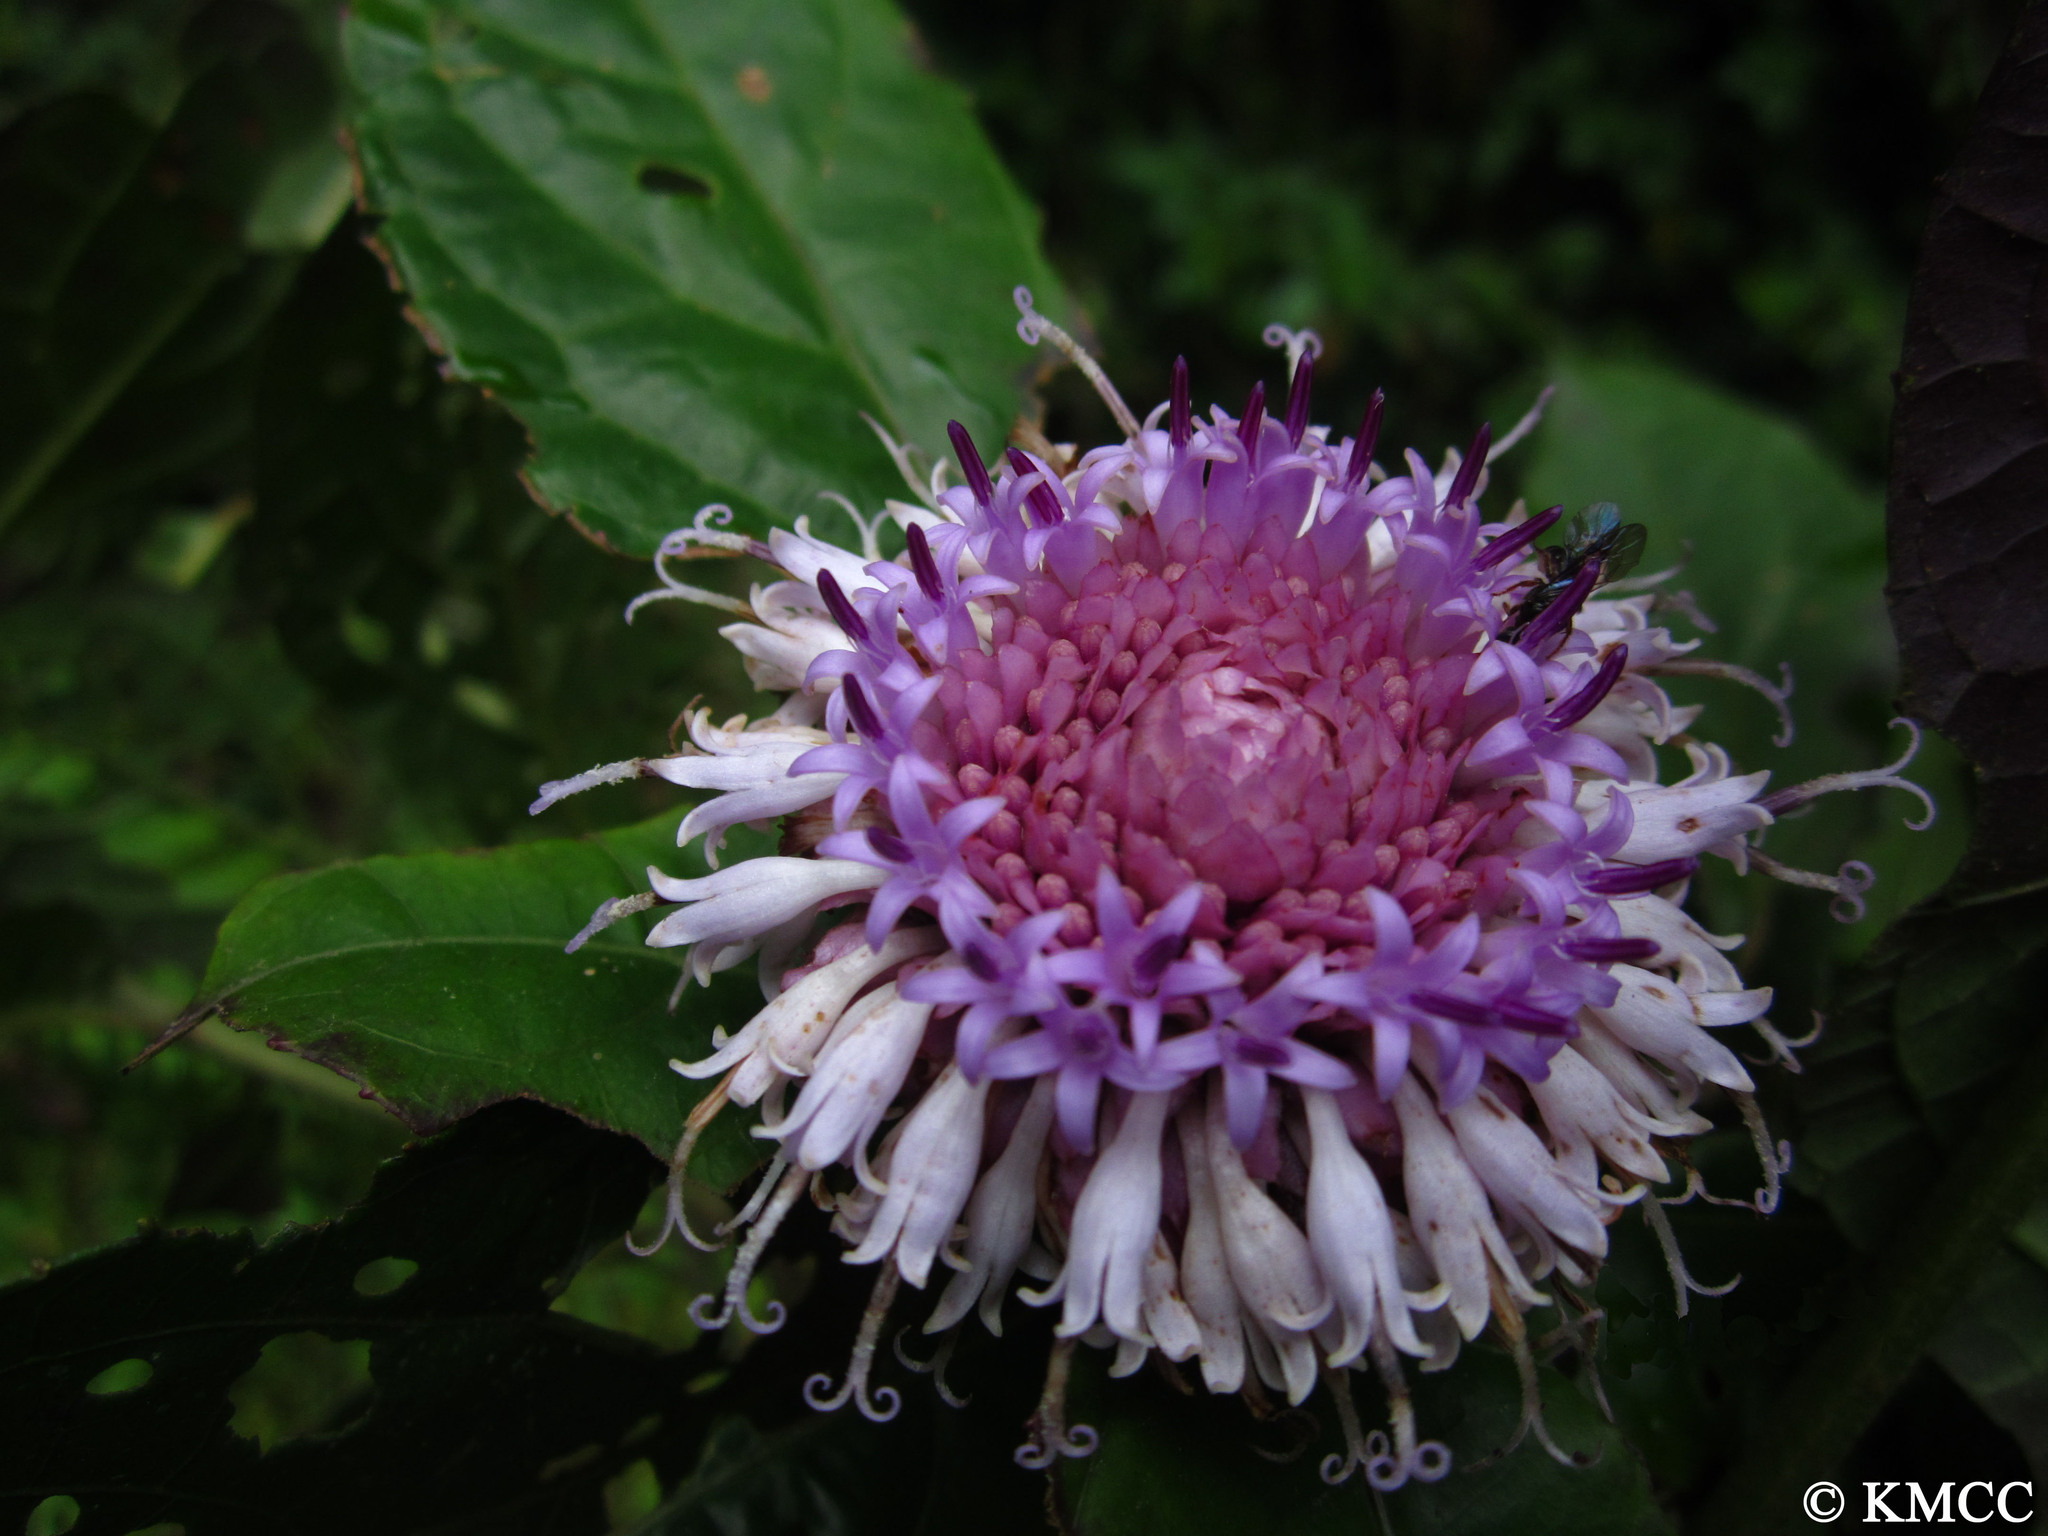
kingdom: Plantae
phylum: Tracheophyta
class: Magnoliopsida
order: Asterales
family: Asteraceae
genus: Centauropsis
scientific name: Centauropsis rhaponticoides
